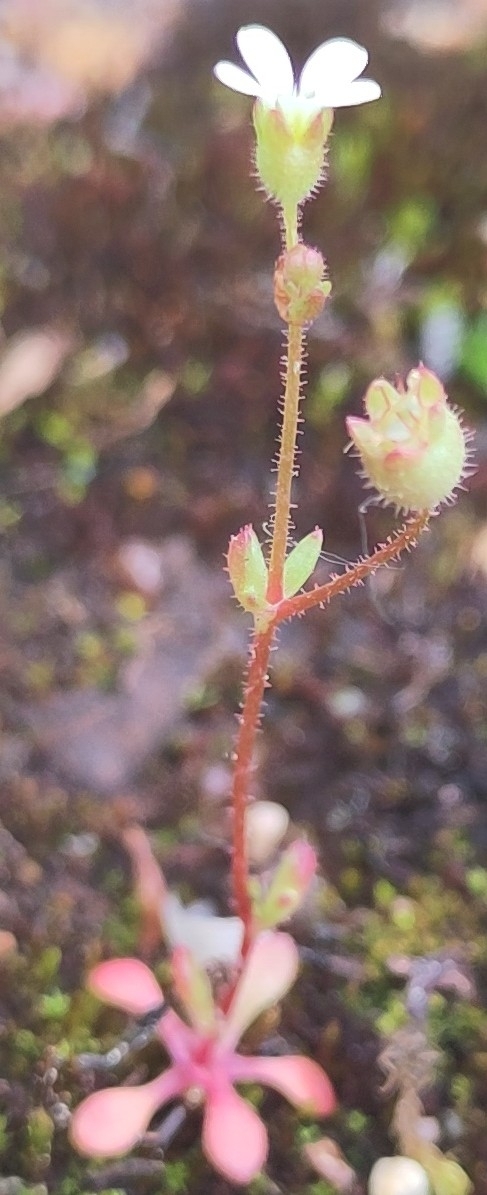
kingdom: Plantae
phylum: Tracheophyta
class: Magnoliopsida
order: Saxifragales
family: Saxifragaceae
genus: Saxifraga
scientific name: Saxifraga tridactylites
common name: Rue-leaved saxifrage
